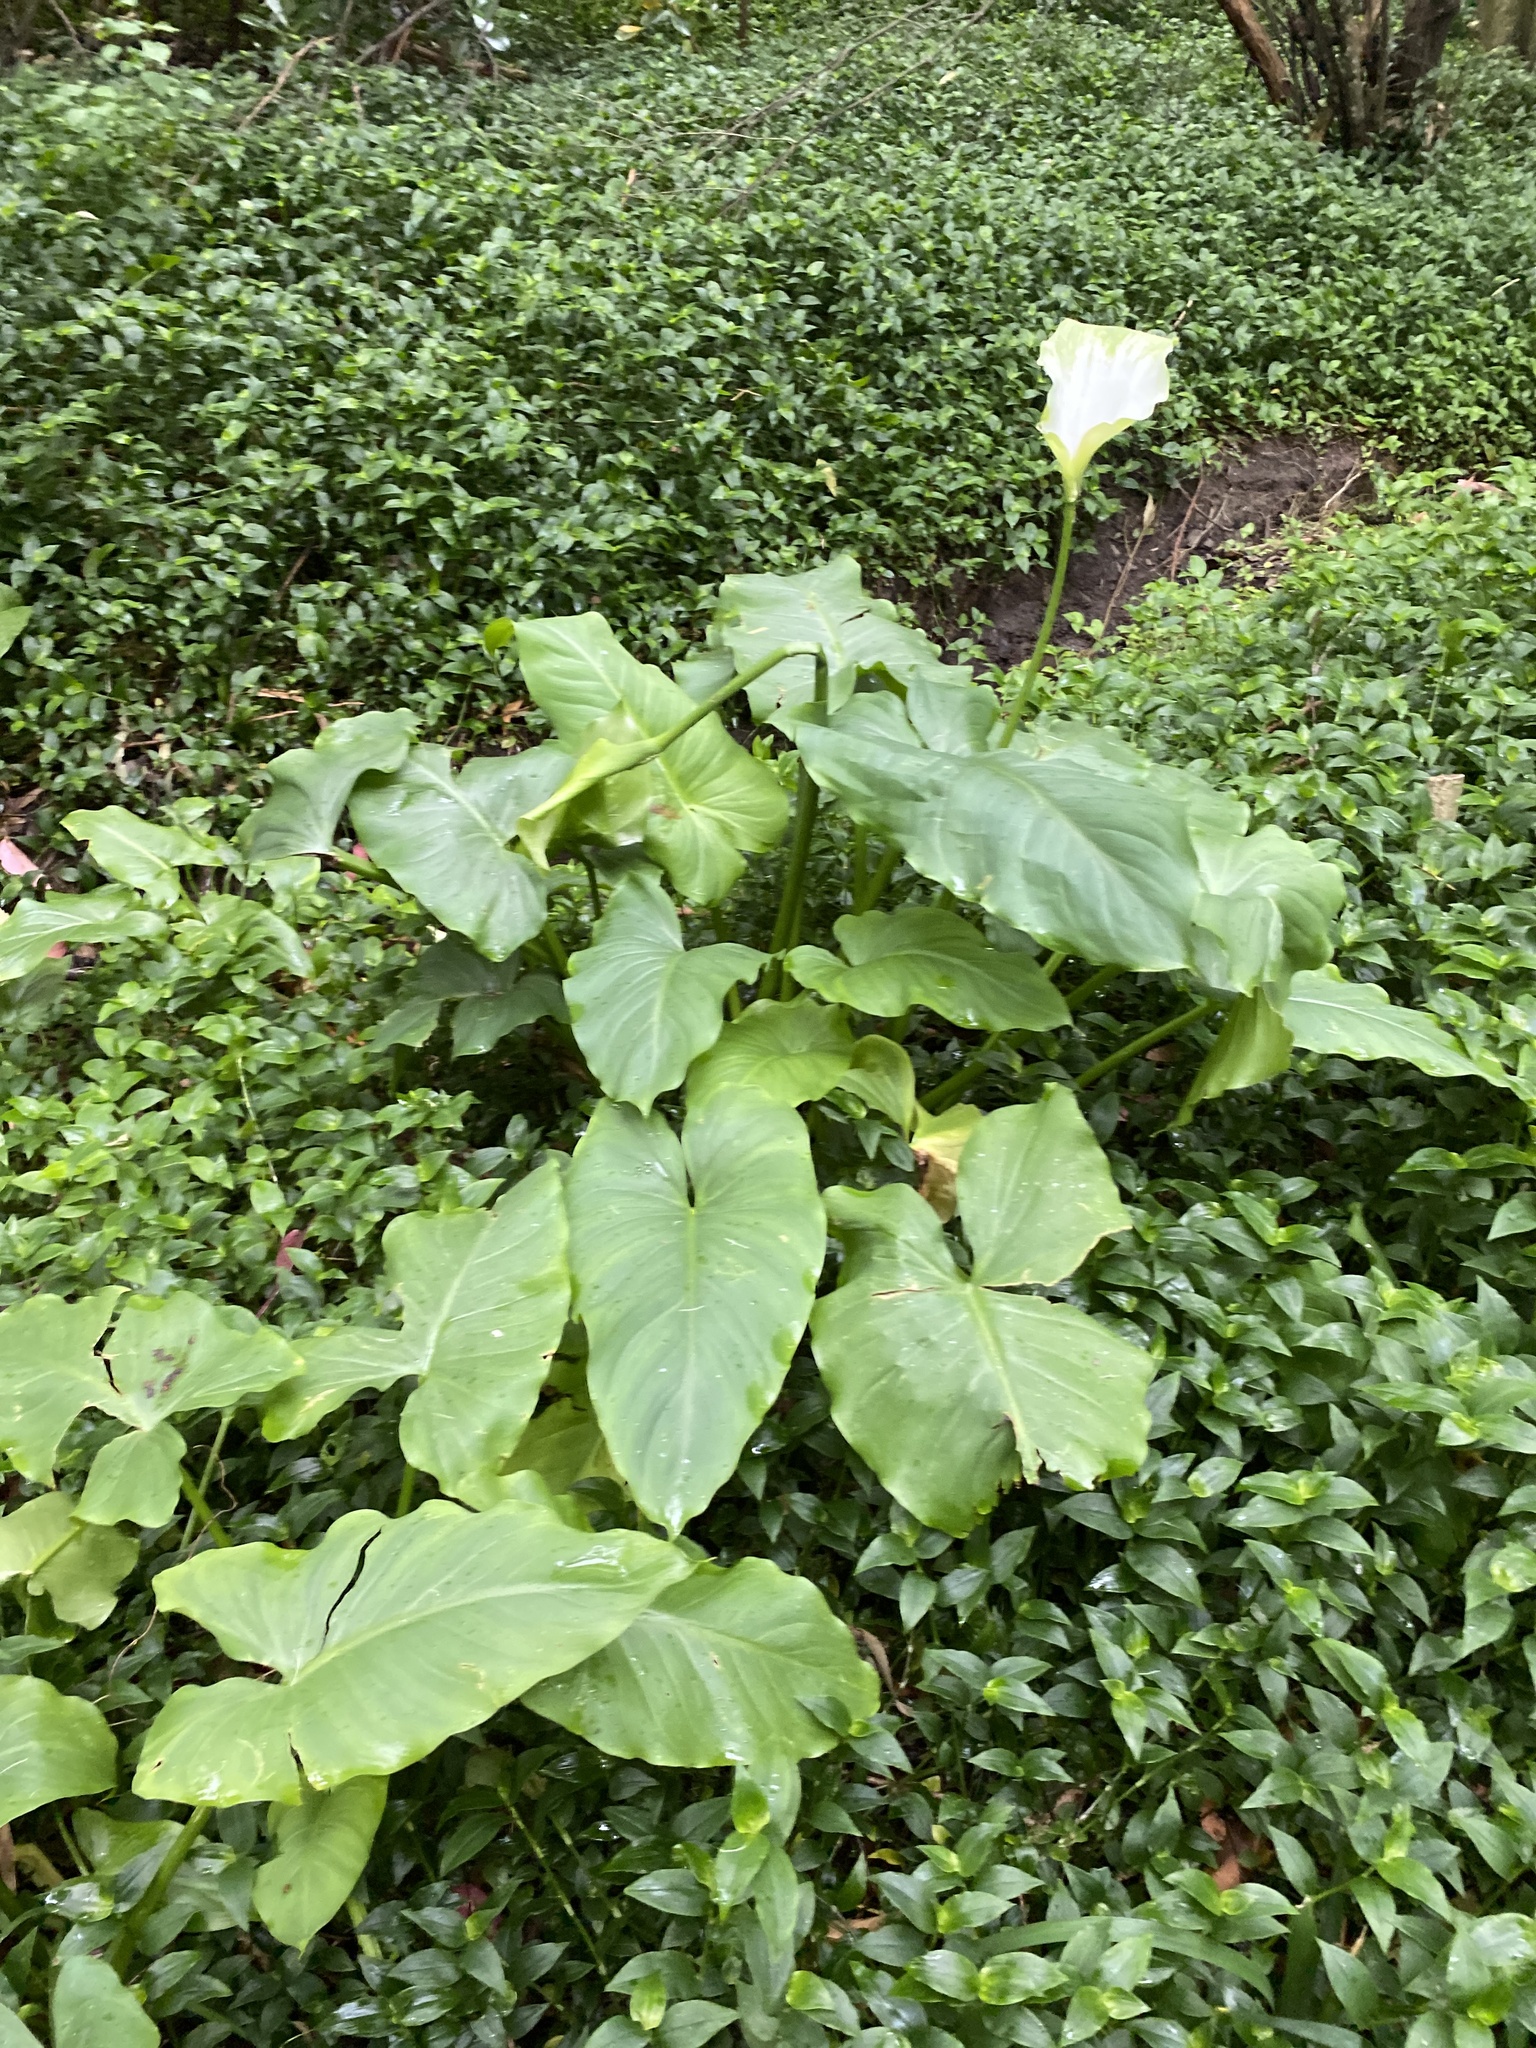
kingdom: Plantae
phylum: Tracheophyta
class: Liliopsida
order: Alismatales
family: Araceae
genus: Zantedeschia
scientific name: Zantedeschia aethiopica
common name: Altar-lily
